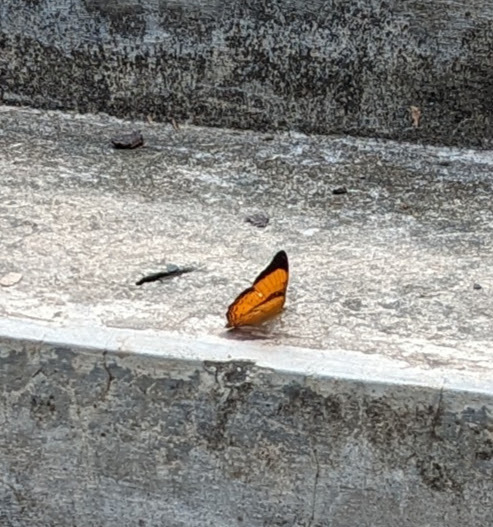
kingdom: Animalia
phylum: Arthropoda
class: Insecta
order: Lepidoptera
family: Nymphalidae
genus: Cirrochroa
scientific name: Cirrochroa emalea
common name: Malay yeoman
